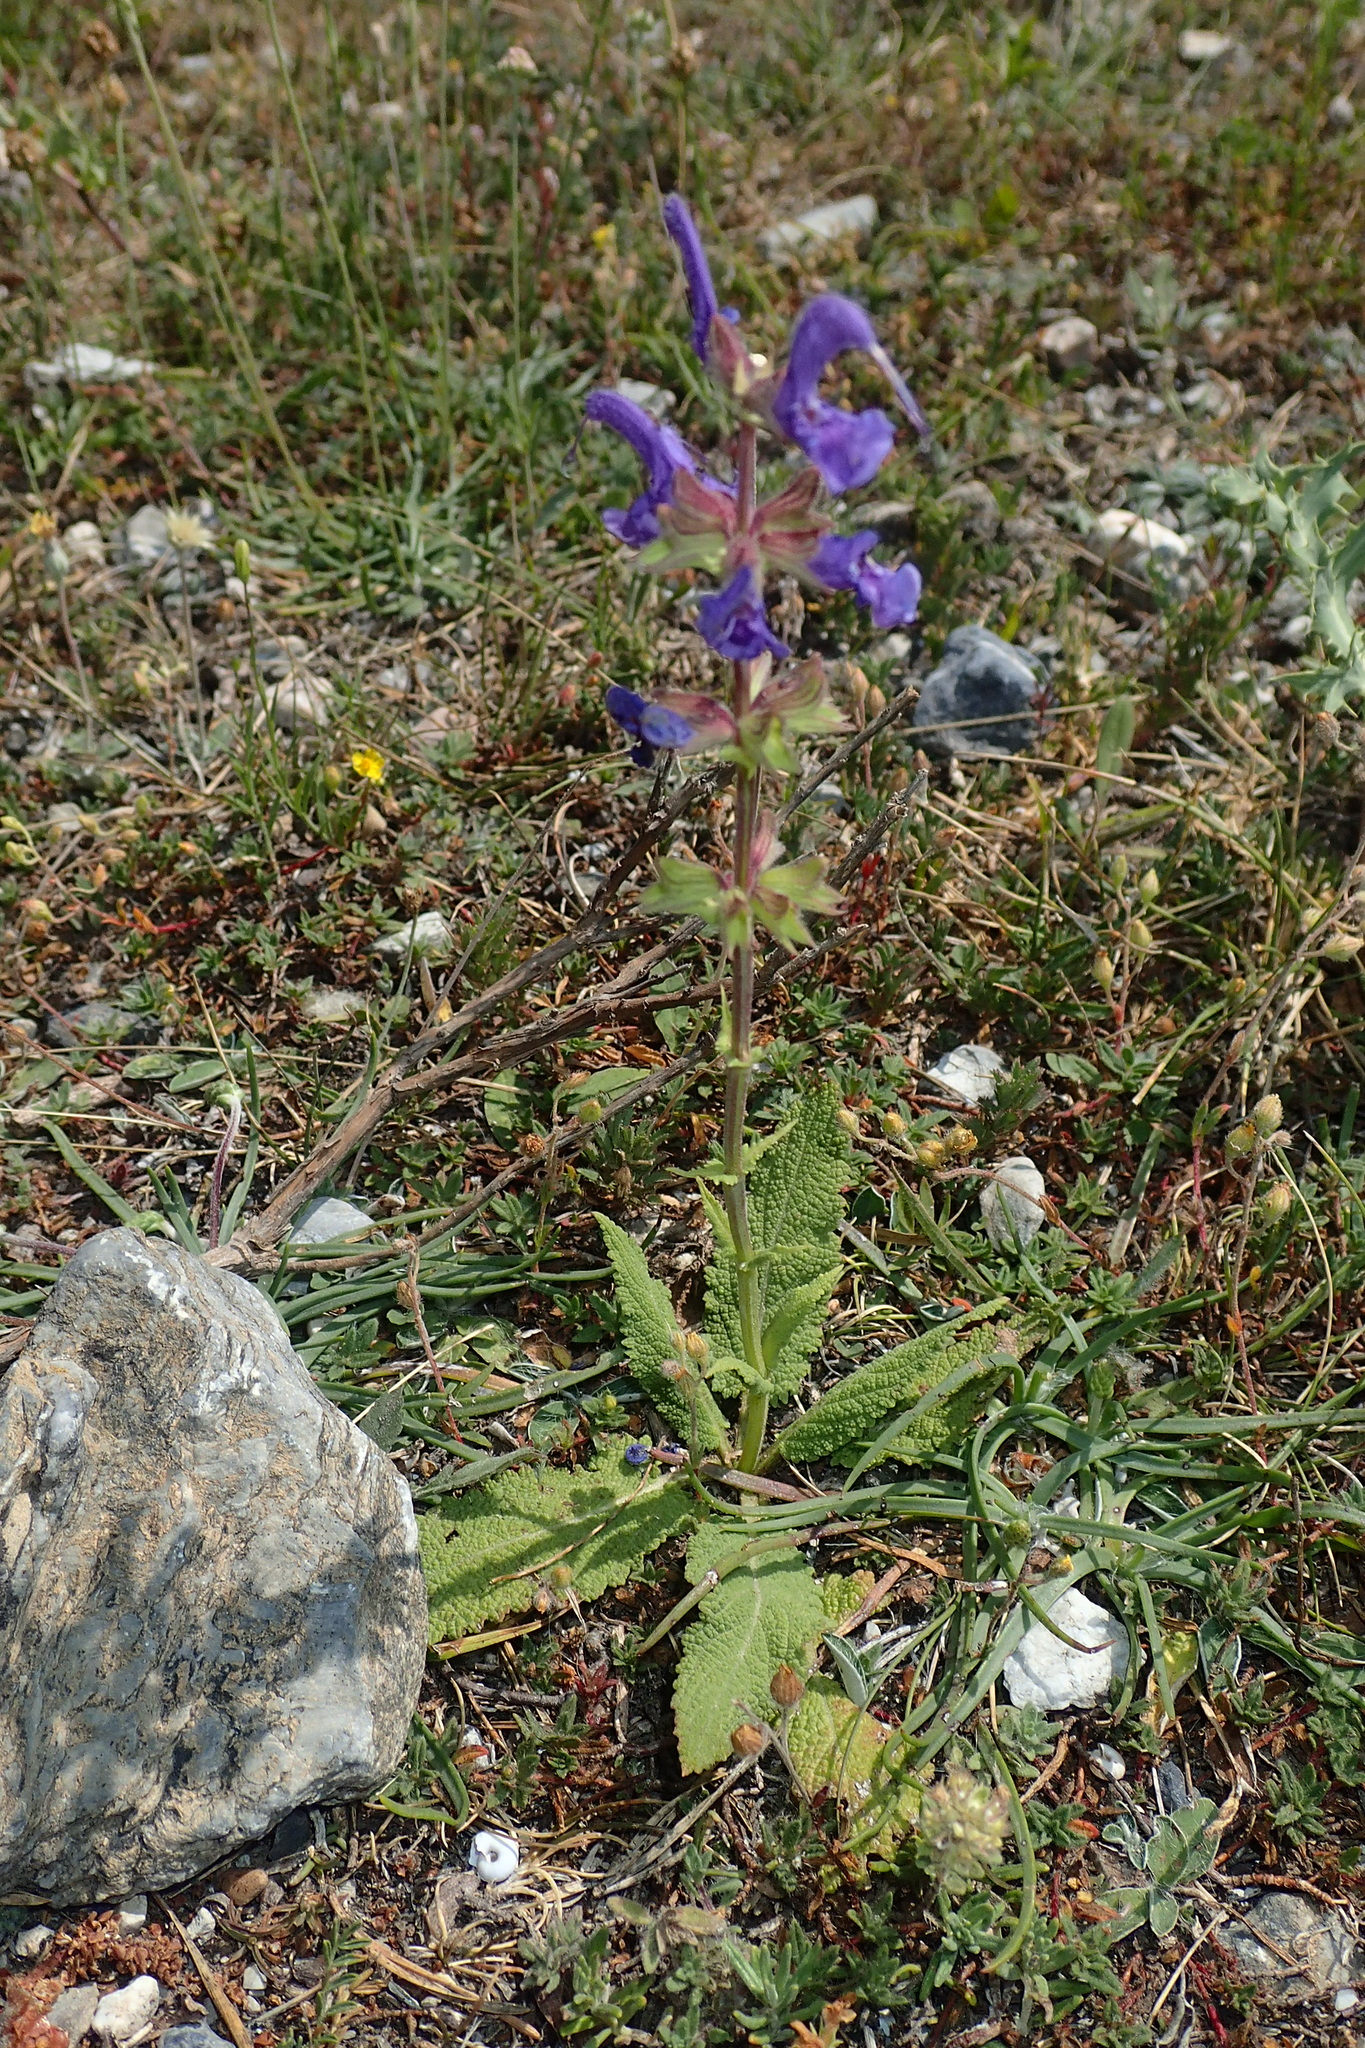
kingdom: Plantae
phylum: Tracheophyta
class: Magnoliopsida
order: Lamiales
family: Lamiaceae
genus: Salvia
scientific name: Salvia pratensis
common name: Meadow sage
